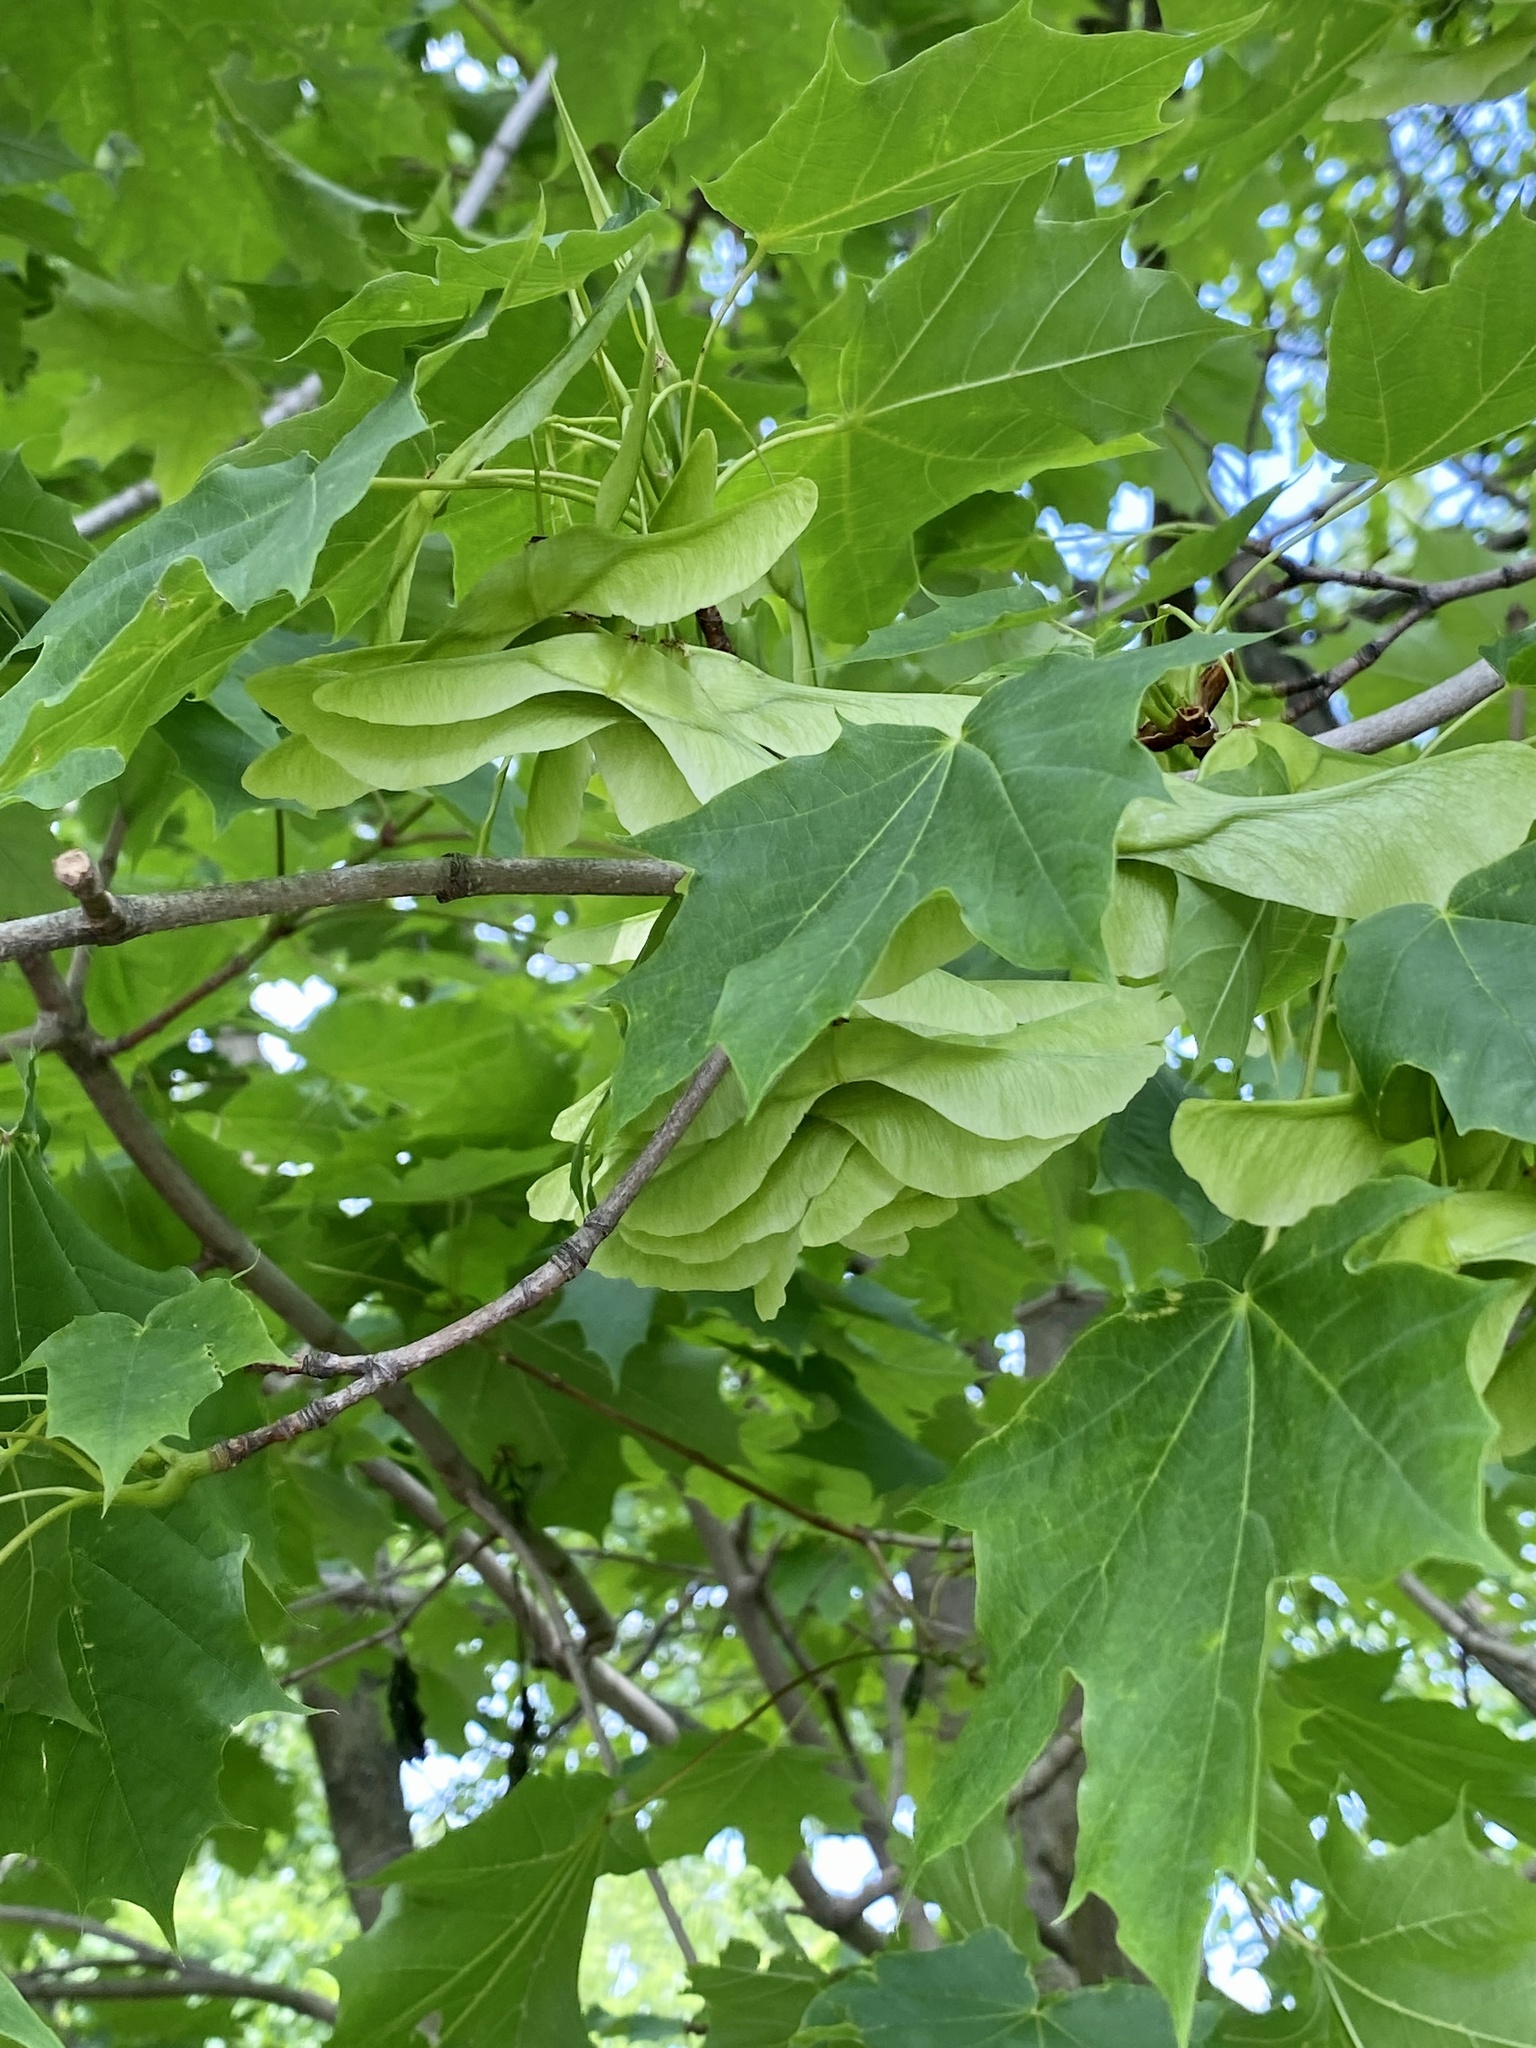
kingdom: Plantae
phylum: Tracheophyta
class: Magnoliopsida
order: Sapindales
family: Sapindaceae
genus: Acer
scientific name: Acer platanoides
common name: Norway maple
